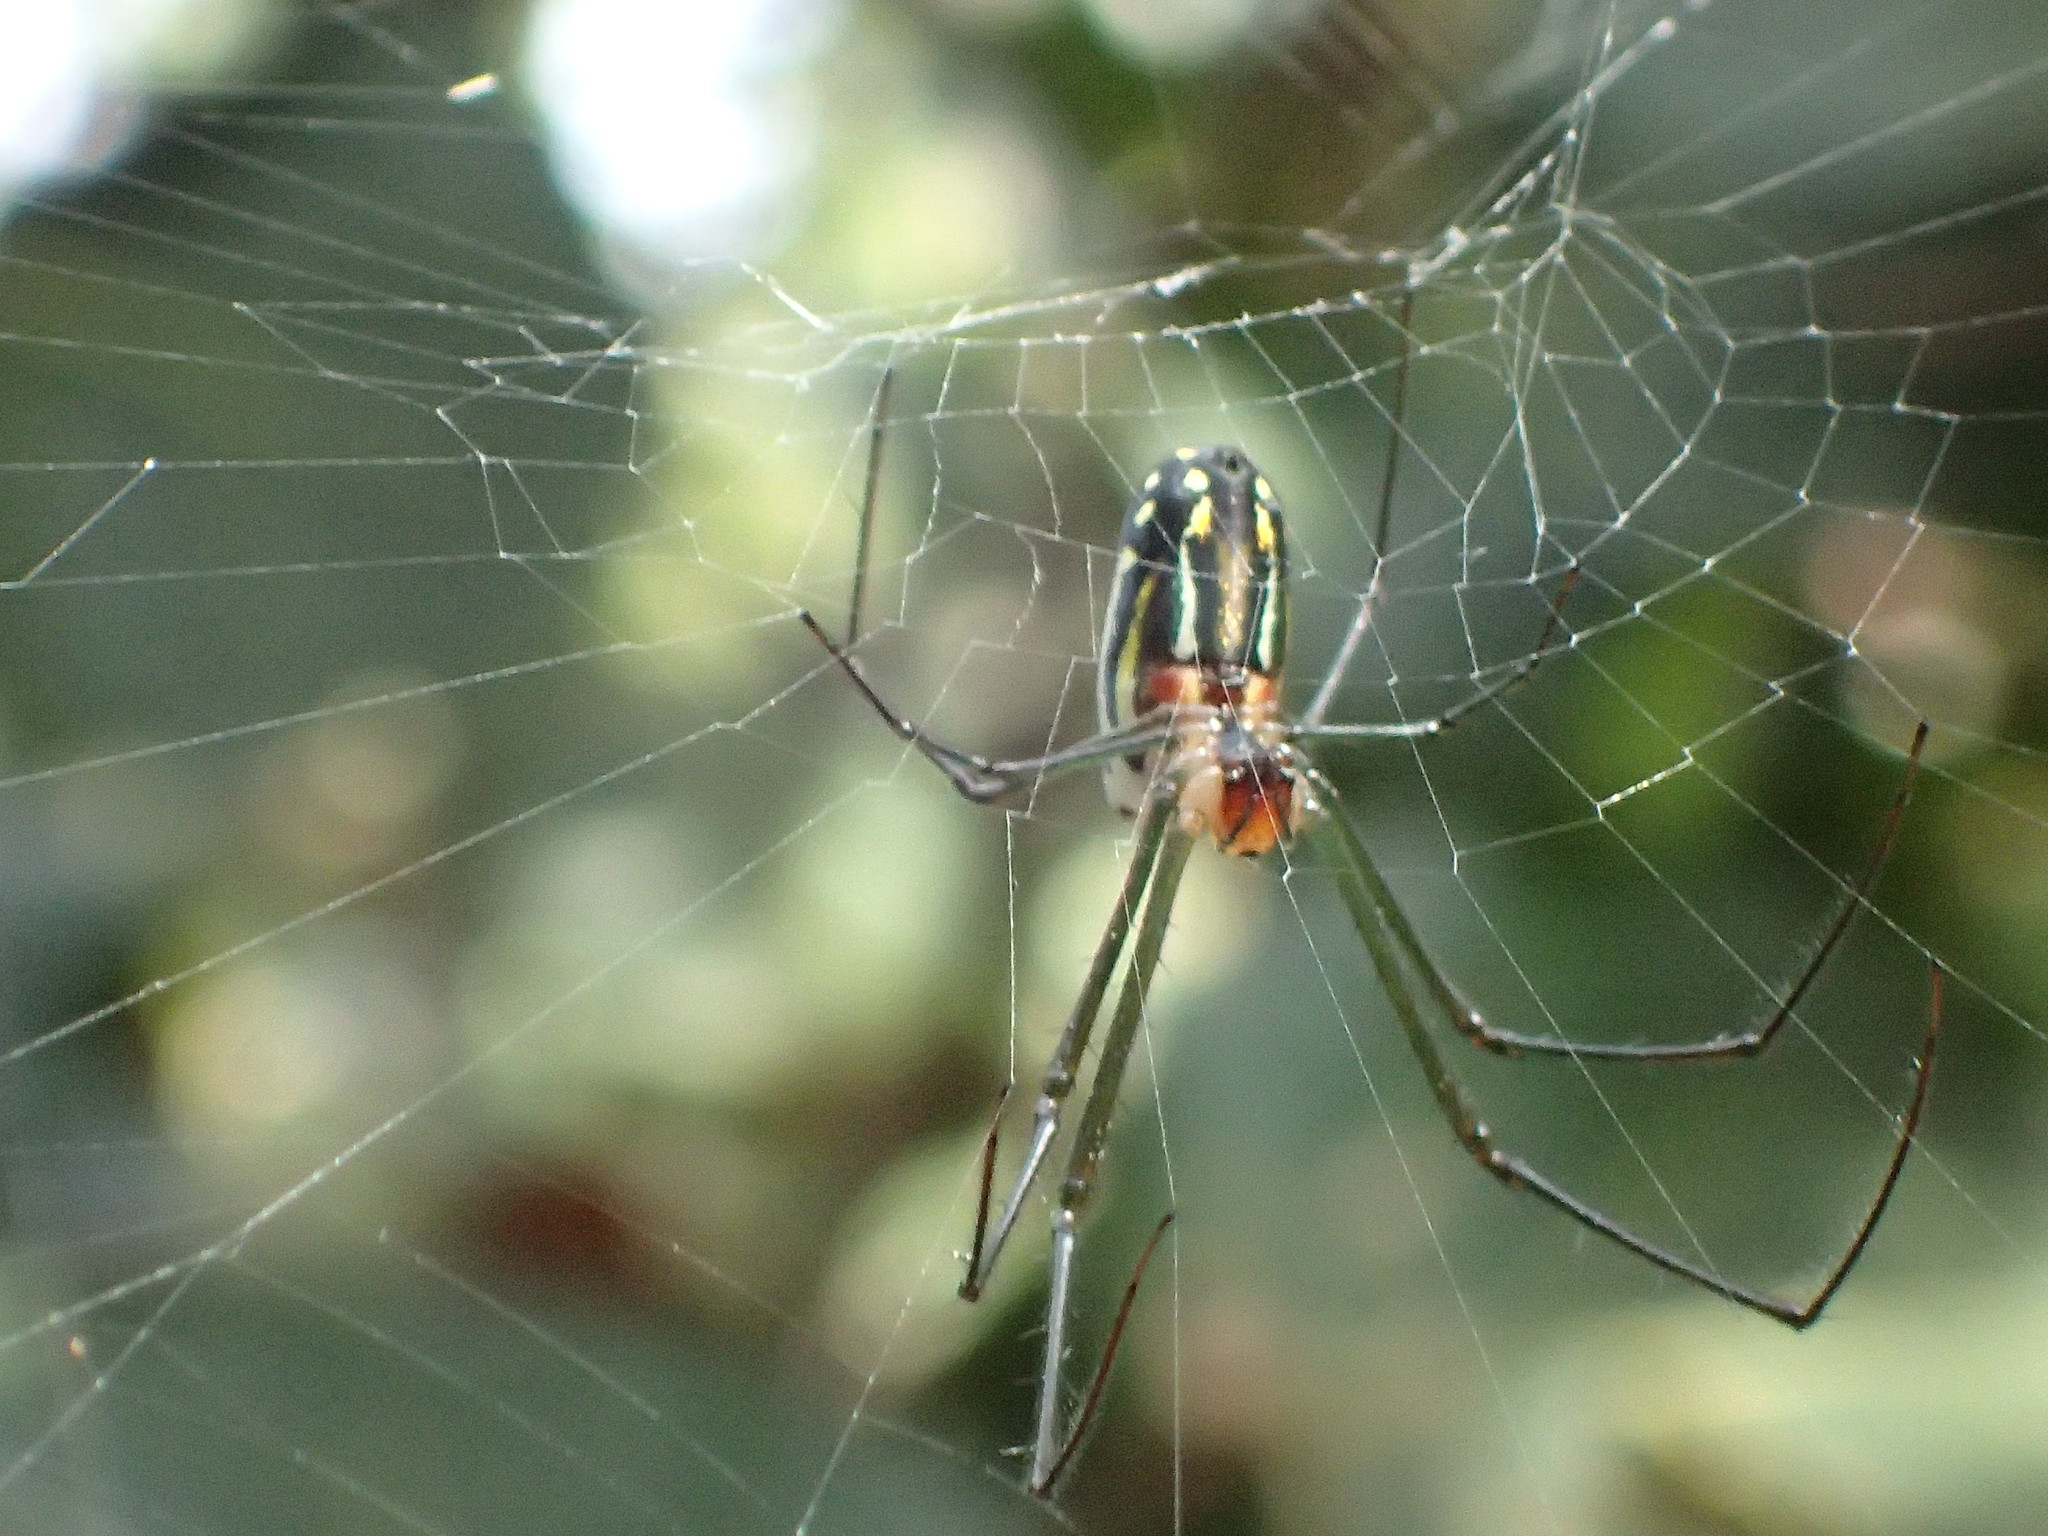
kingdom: Animalia
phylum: Arthropoda
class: Arachnida
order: Araneae
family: Tetragnathidae
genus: Leucauge
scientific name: Leucauge argyra
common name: Longjawed orb weavers
